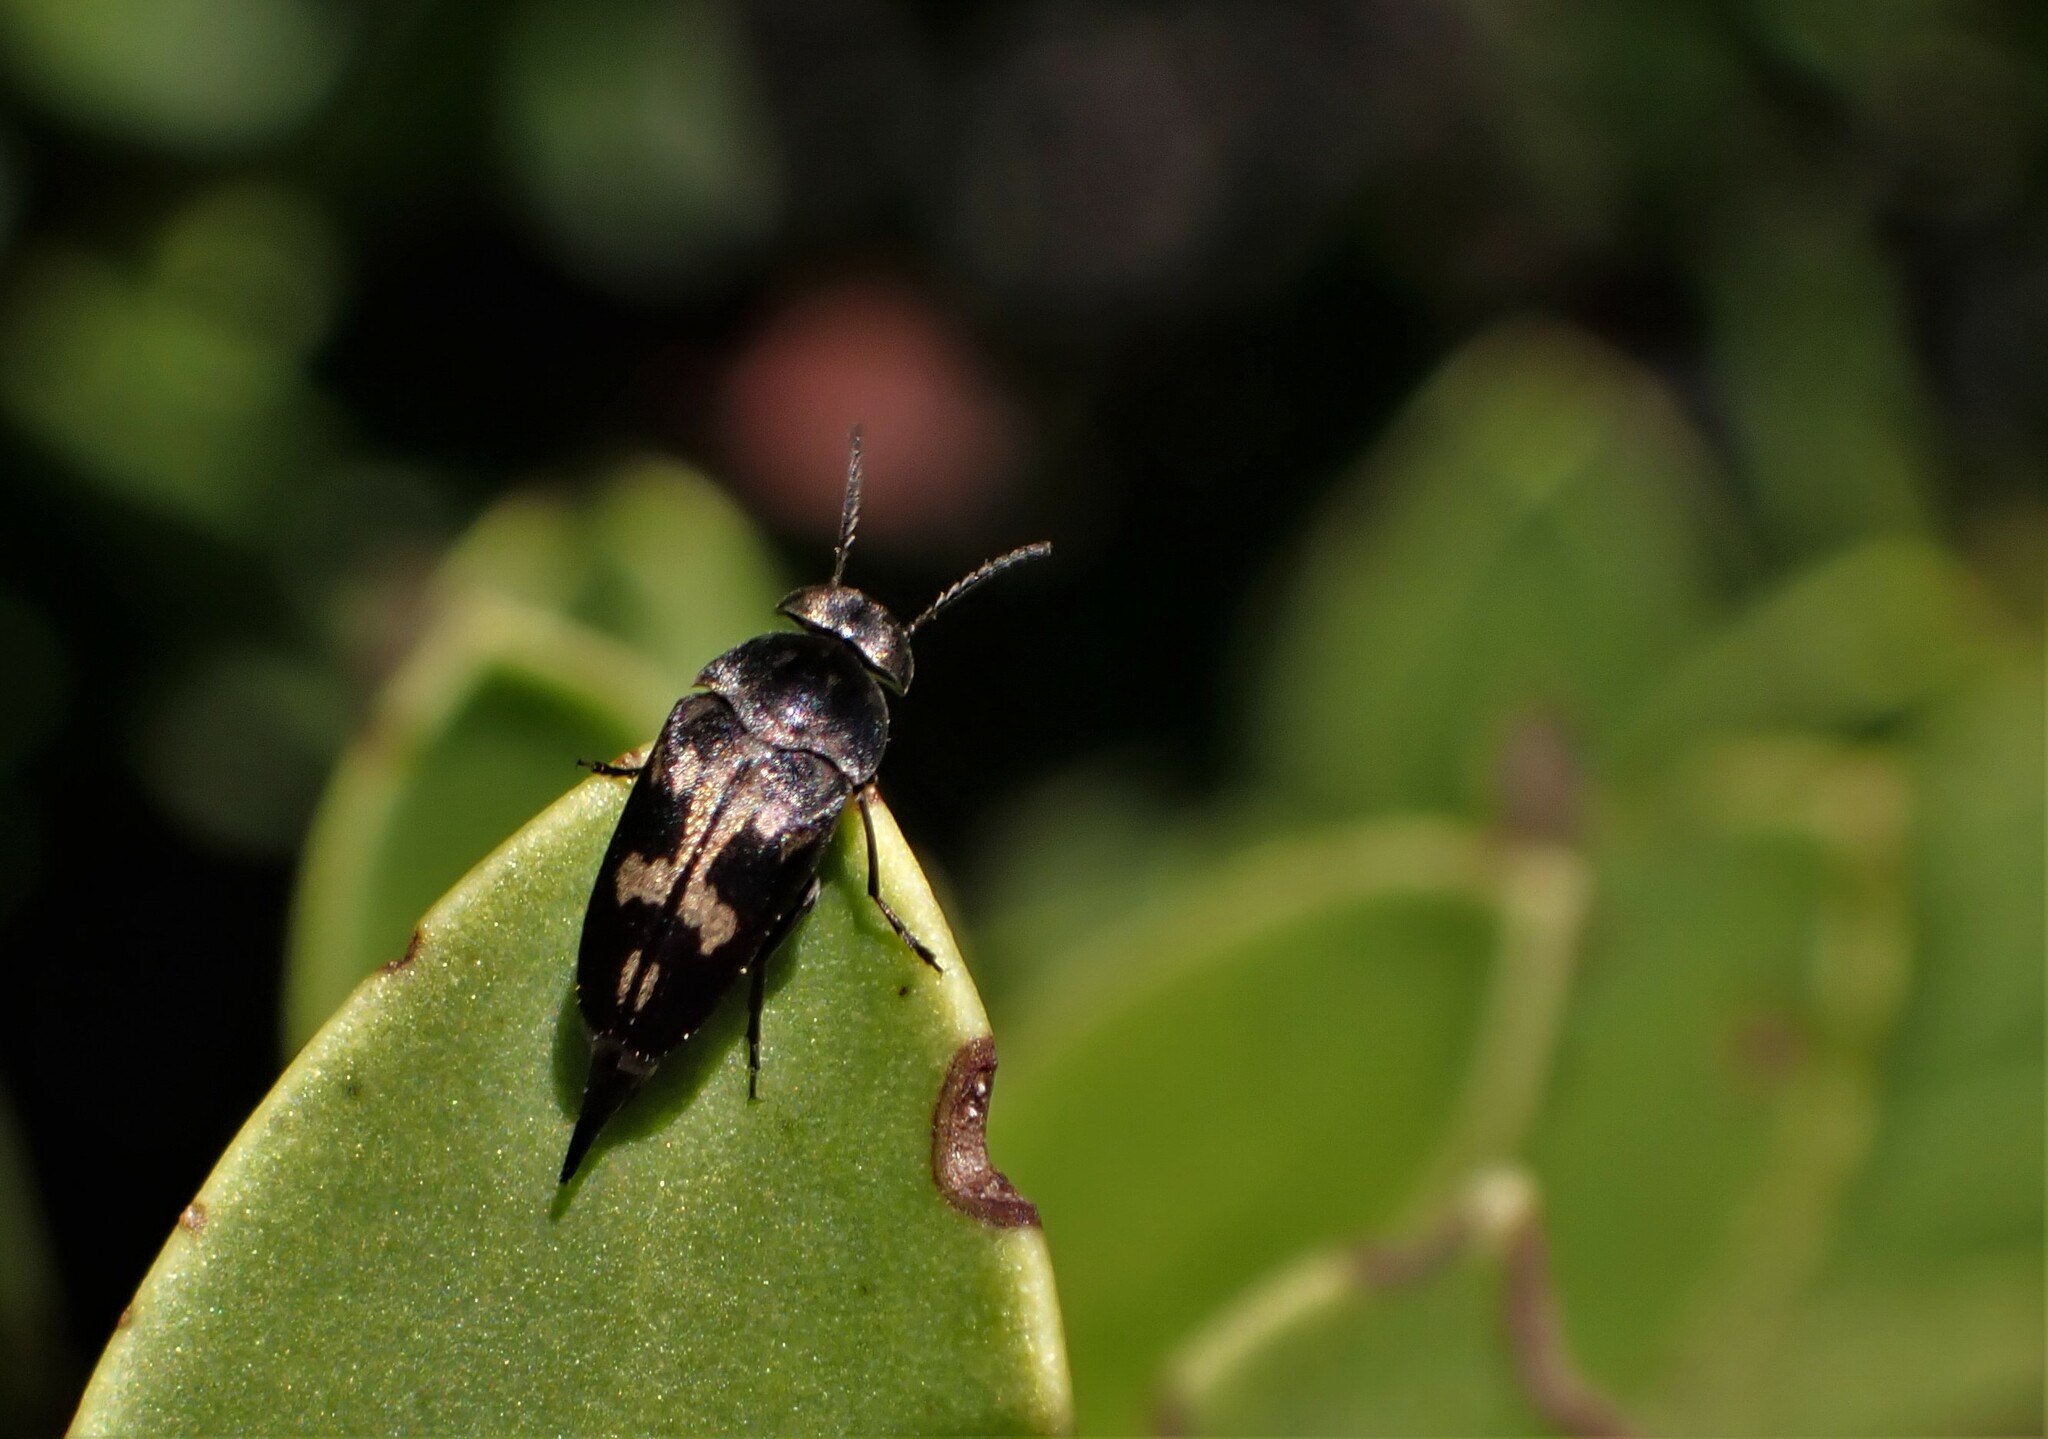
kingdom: Animalia
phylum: Arthropoda
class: Insecta
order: Coleoptera
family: Mordellidae
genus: Zeamordella
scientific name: Zeamordella monacha
